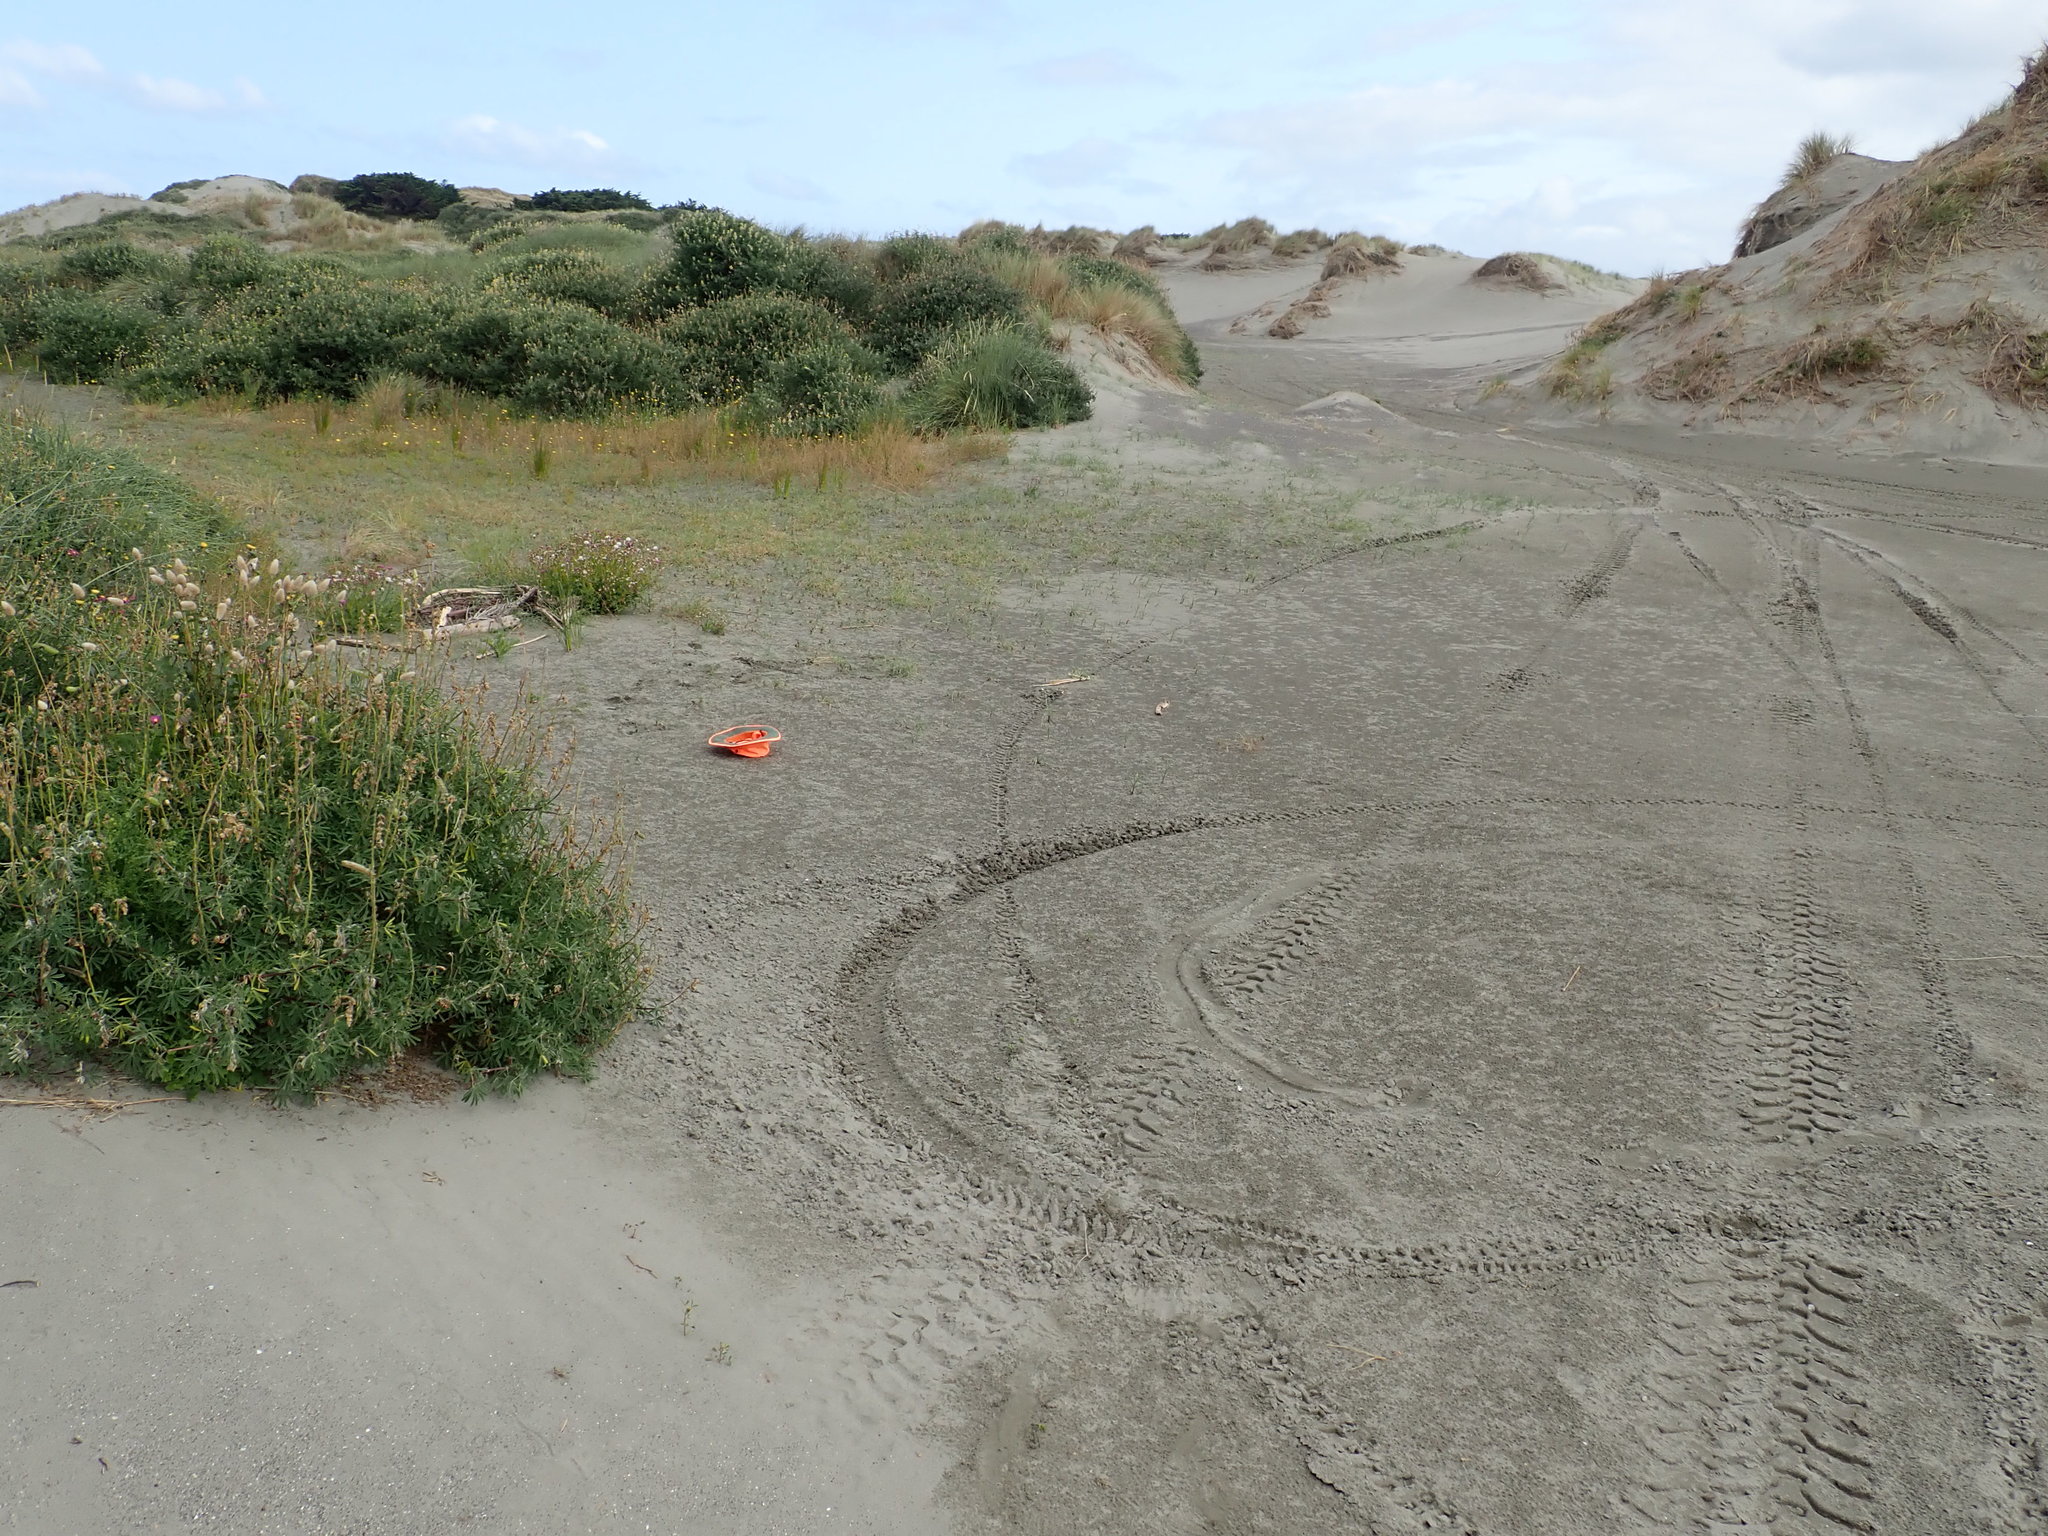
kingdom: Plantae
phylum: Tracheophyta
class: Liliopsida
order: Alismatales
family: Juncaginaceae
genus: Triglochin
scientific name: Triglochin striata
